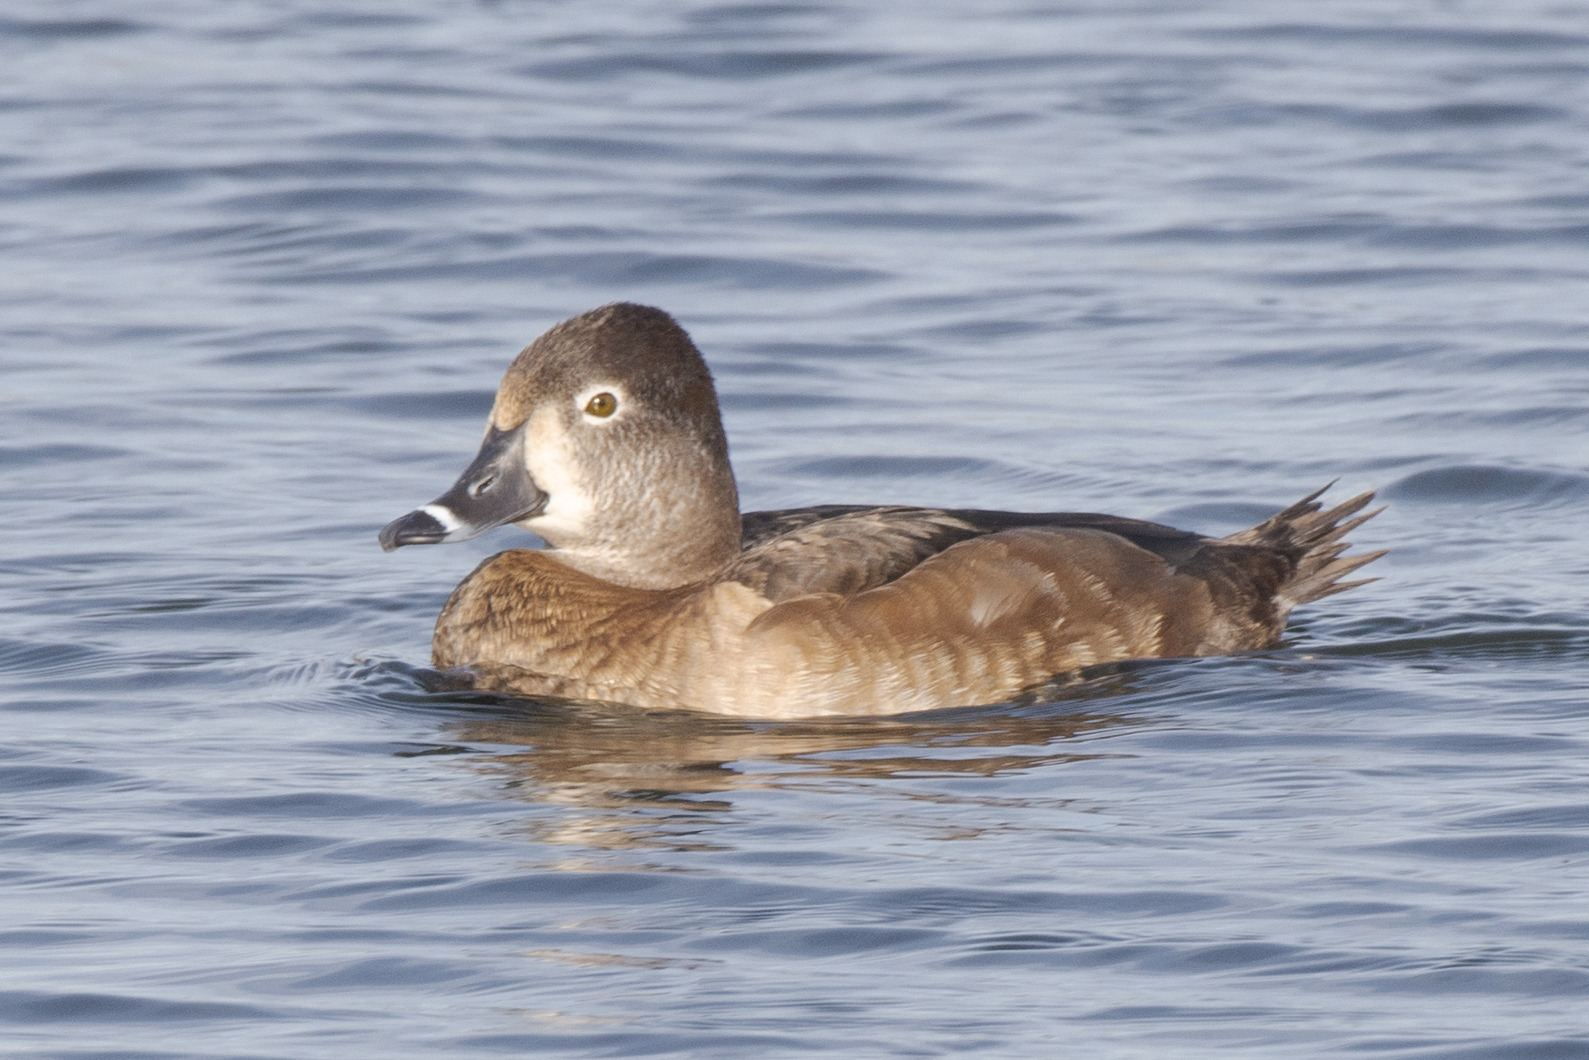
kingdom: Animalia
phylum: Chordata
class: Aves
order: Anseriformes
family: Anatidae
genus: Aythya
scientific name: Aythya collaris
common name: Ring-necked duck
